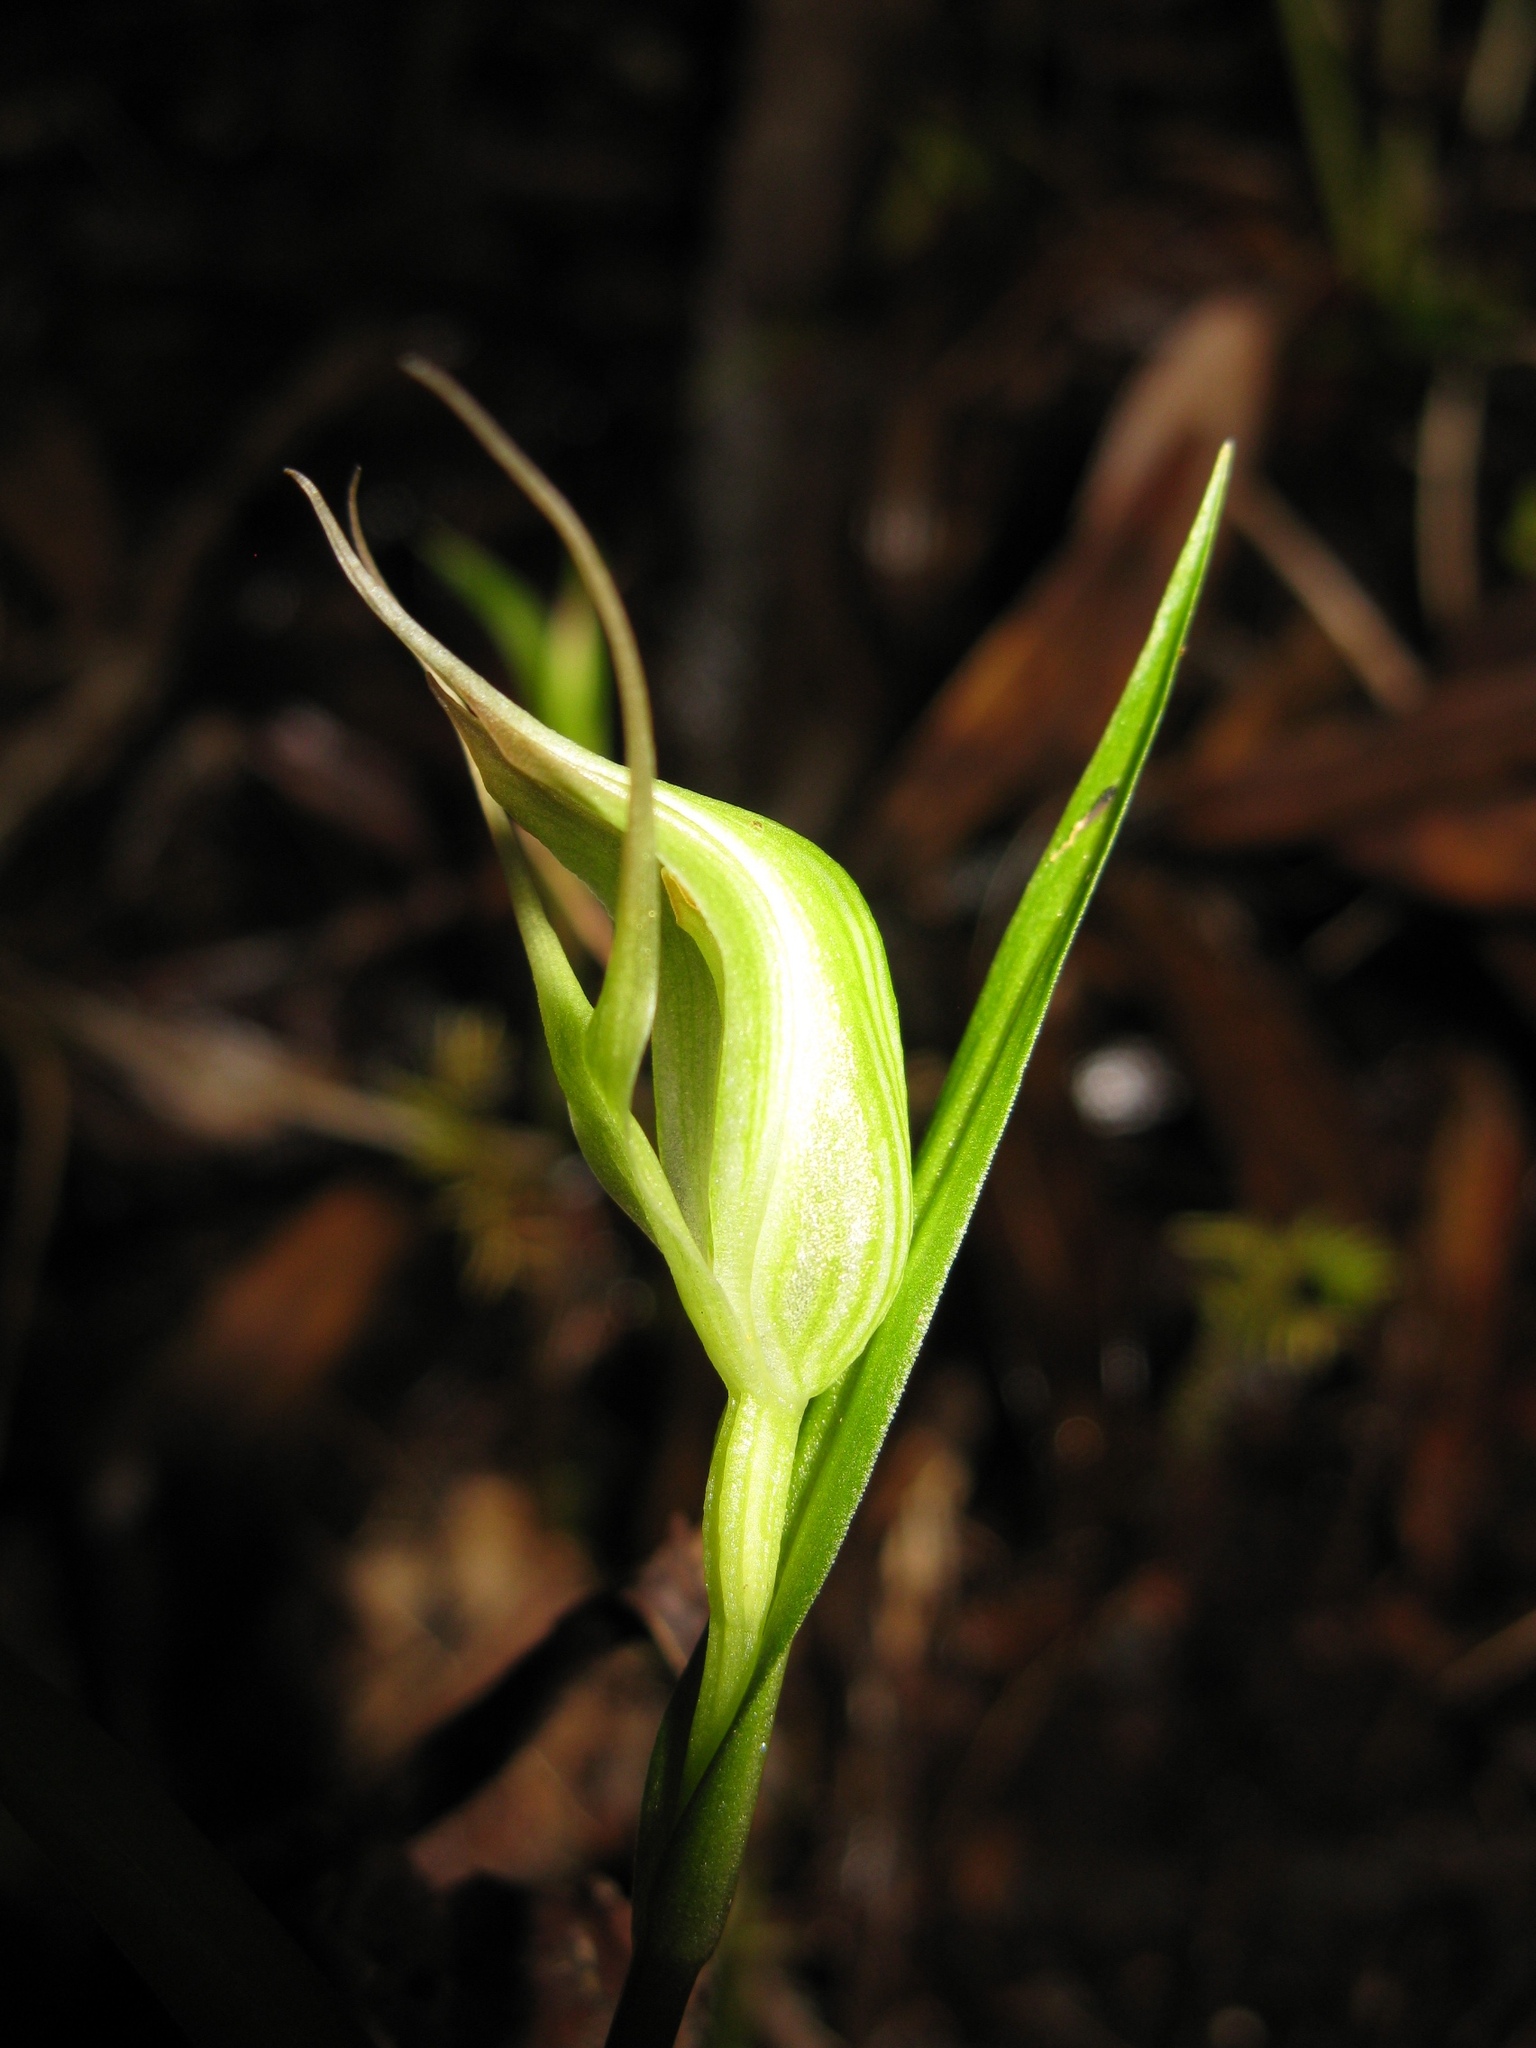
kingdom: Plantae
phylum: Tracheophyta
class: Liliopsida
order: Asparagales
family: Orchidaceae
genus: Pterostylis
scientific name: Pterostylis agathicola
